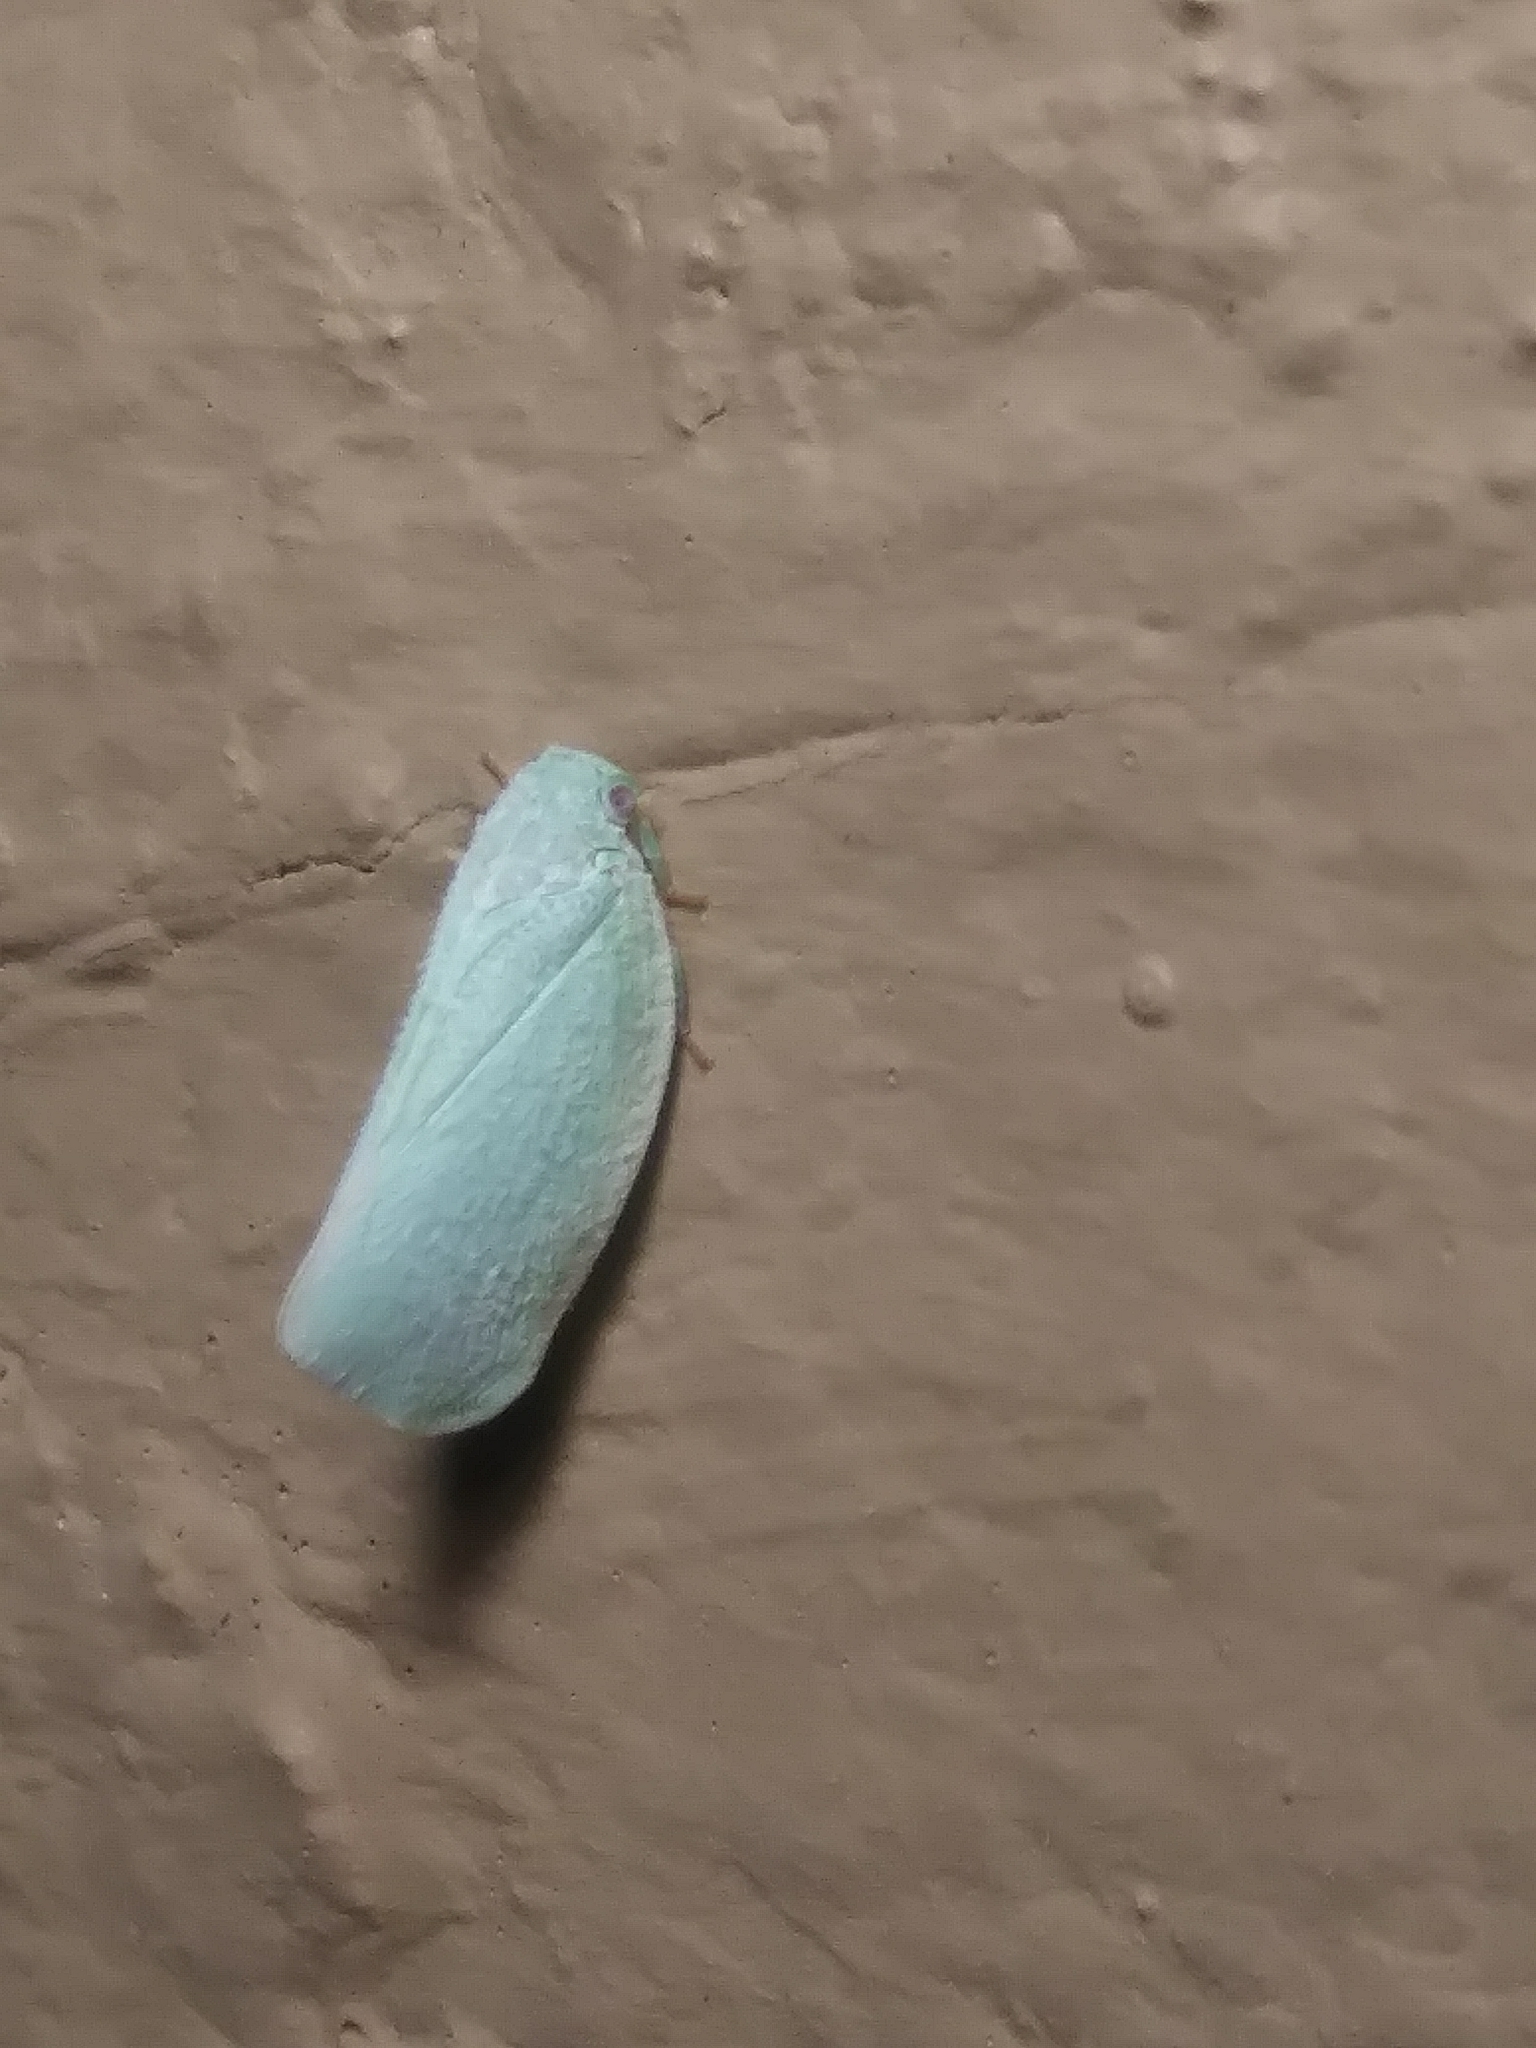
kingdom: Animalia
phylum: Arthropoda
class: Insecta
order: Hemiptera
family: Flatidae
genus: Flatormenis
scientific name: Flatormenis proxima
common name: Northern flatid planthopper
